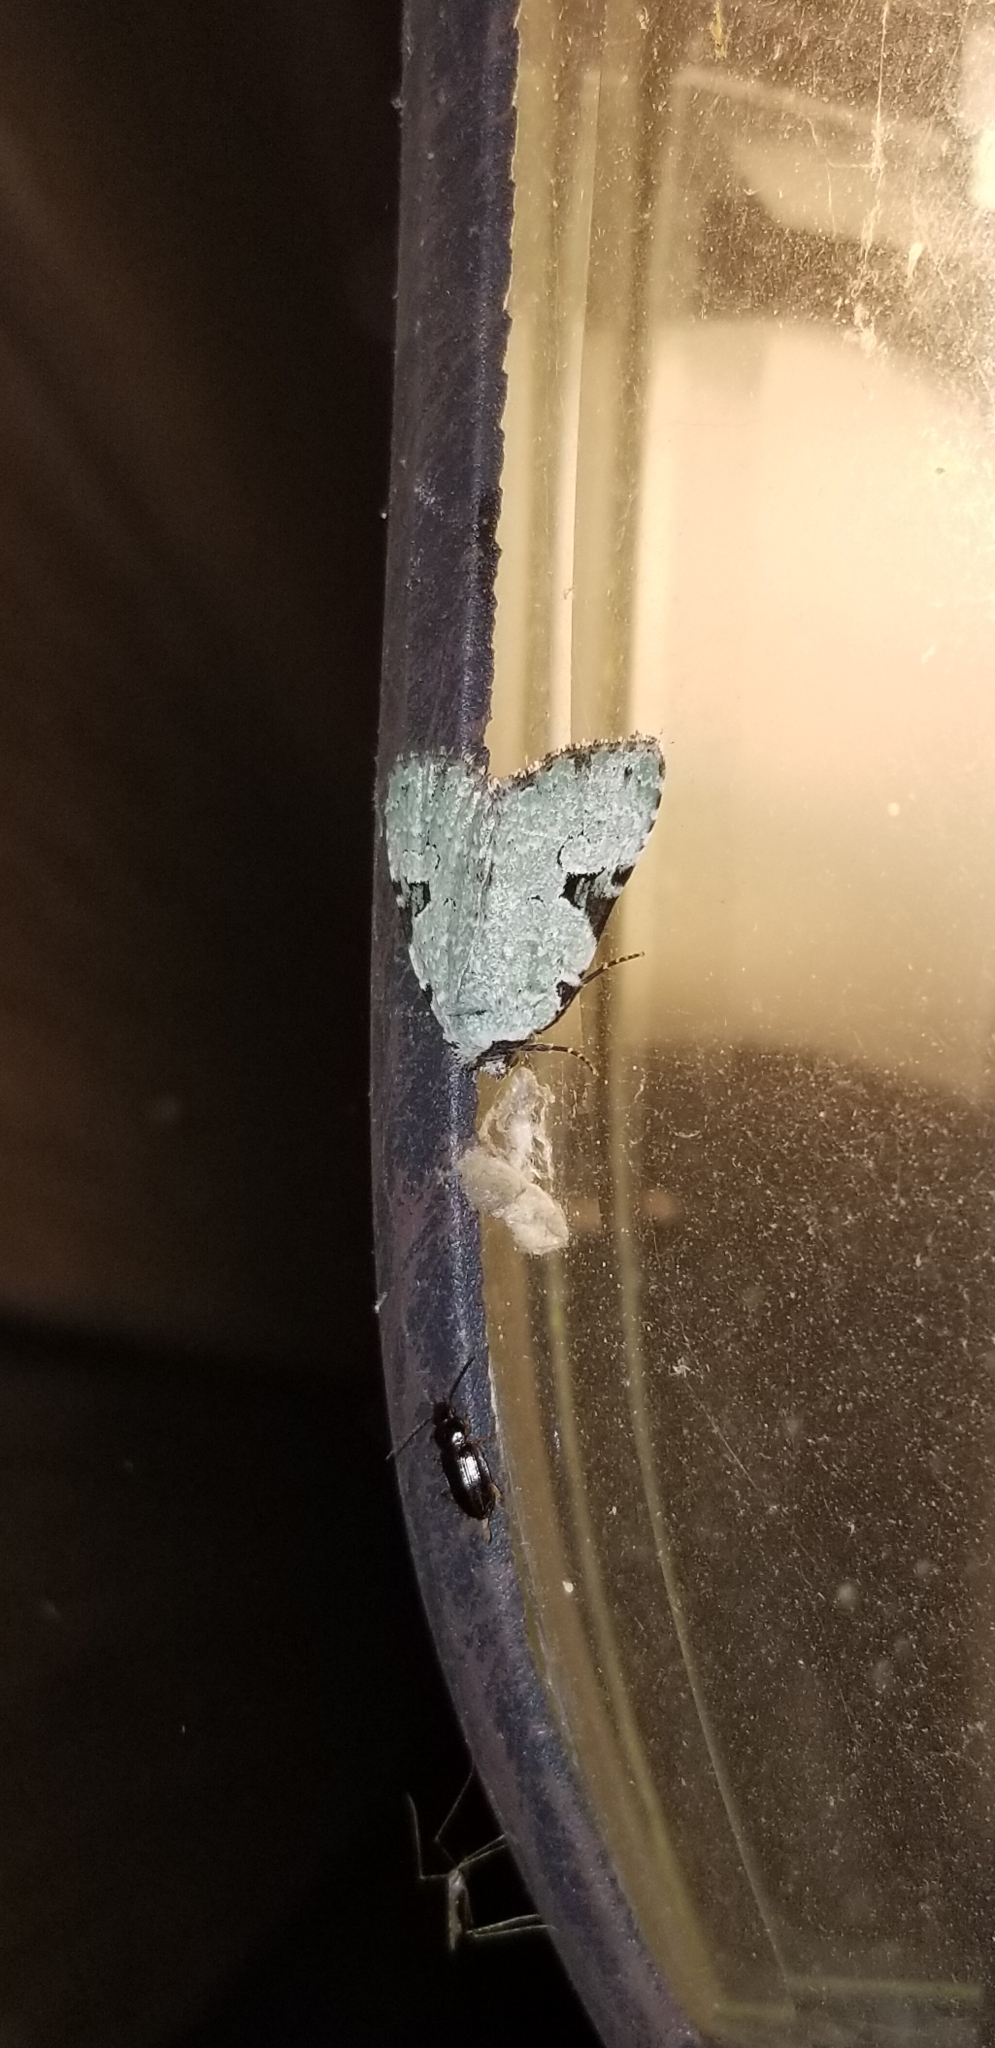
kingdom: Animalia
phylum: Arthropoda
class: Insecta
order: Lepidoptera
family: Noctuidae
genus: Leuconycta
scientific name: Leuconycta diphteroides
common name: Green leuconycta moth
